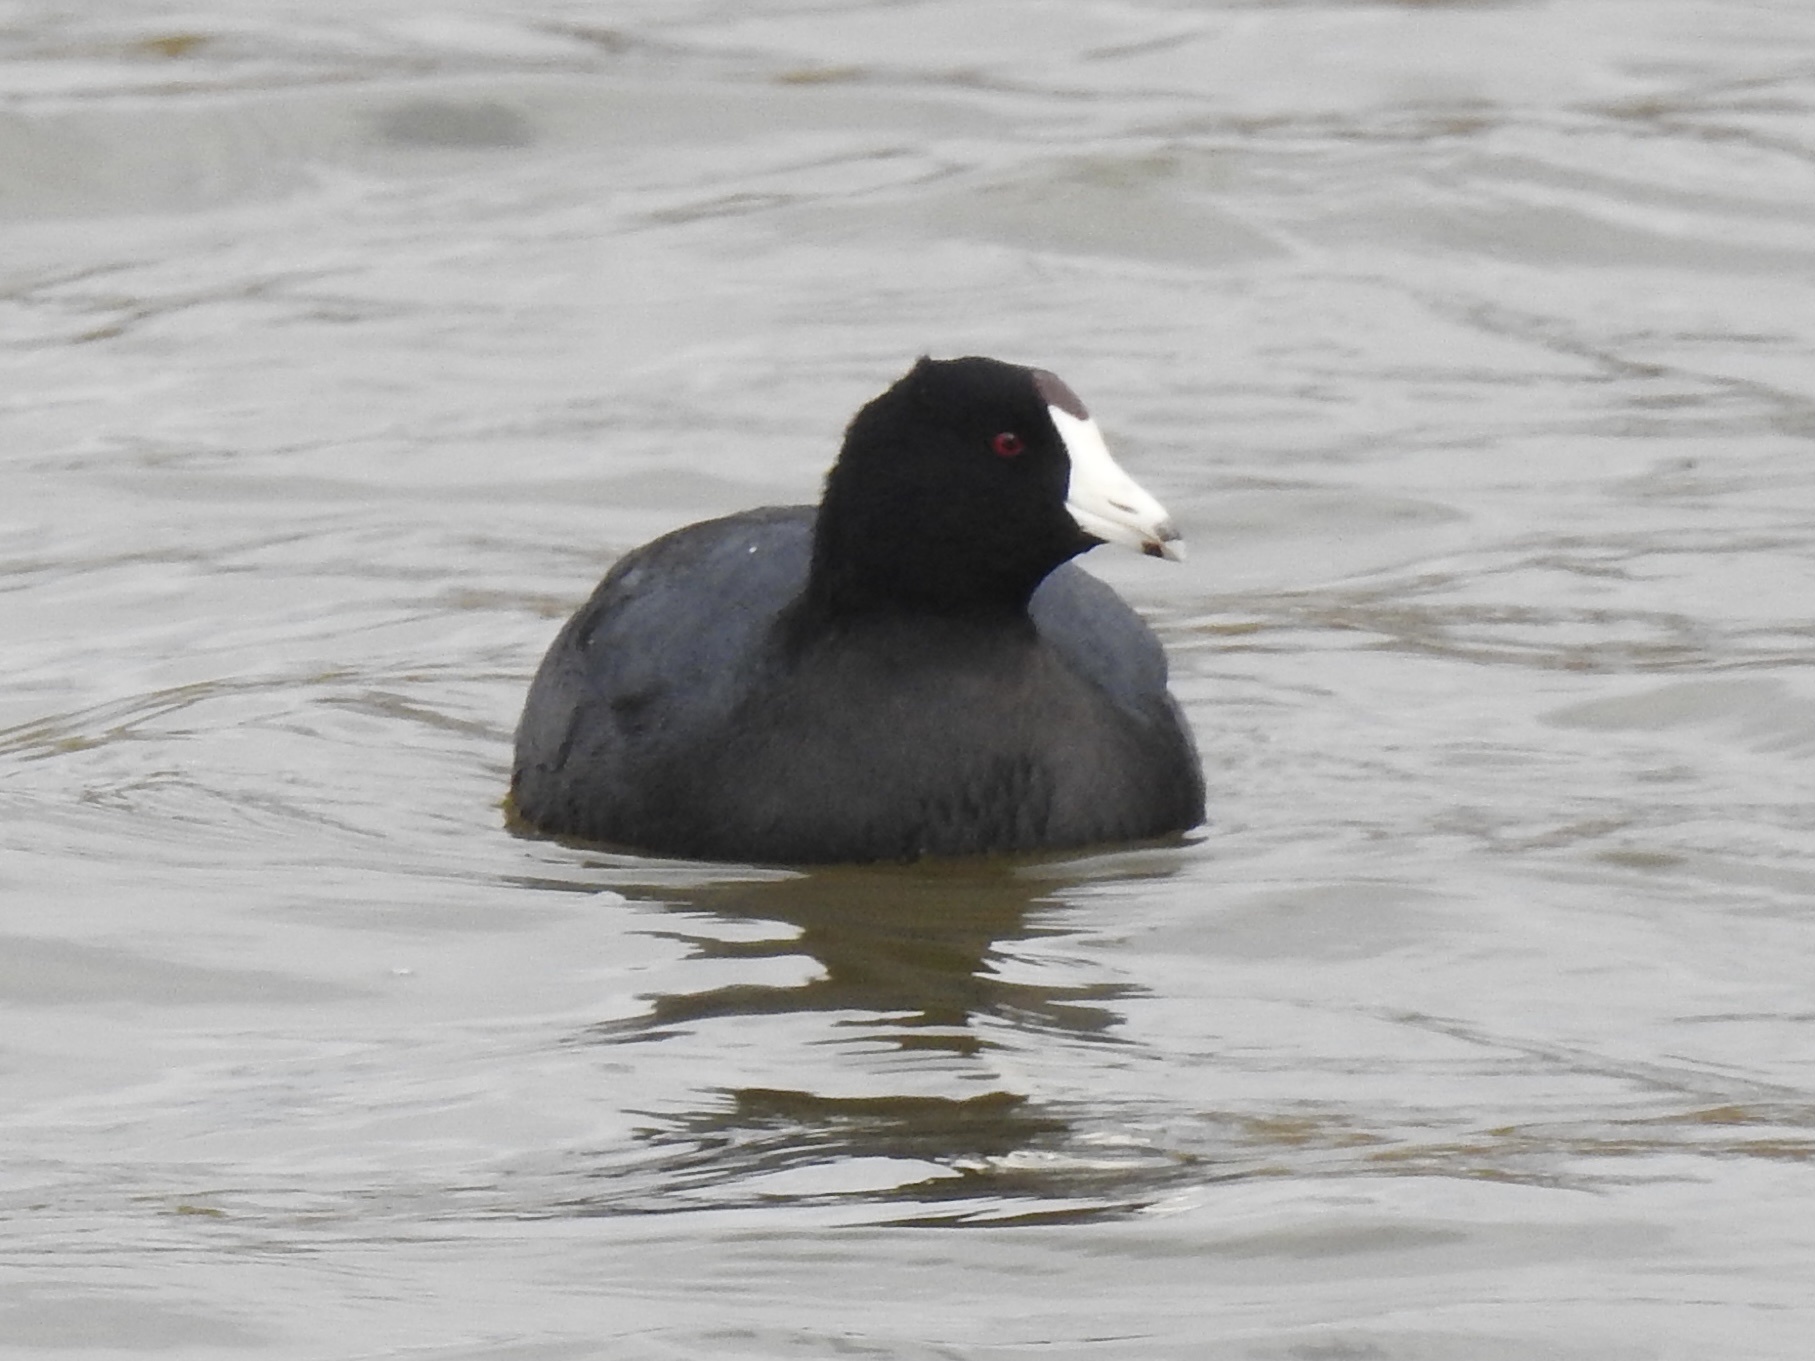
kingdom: Animalia
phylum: Chordata
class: Aves
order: Gruiformes
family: Rallidae
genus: Fulica
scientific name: Fulica americana
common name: American coot
